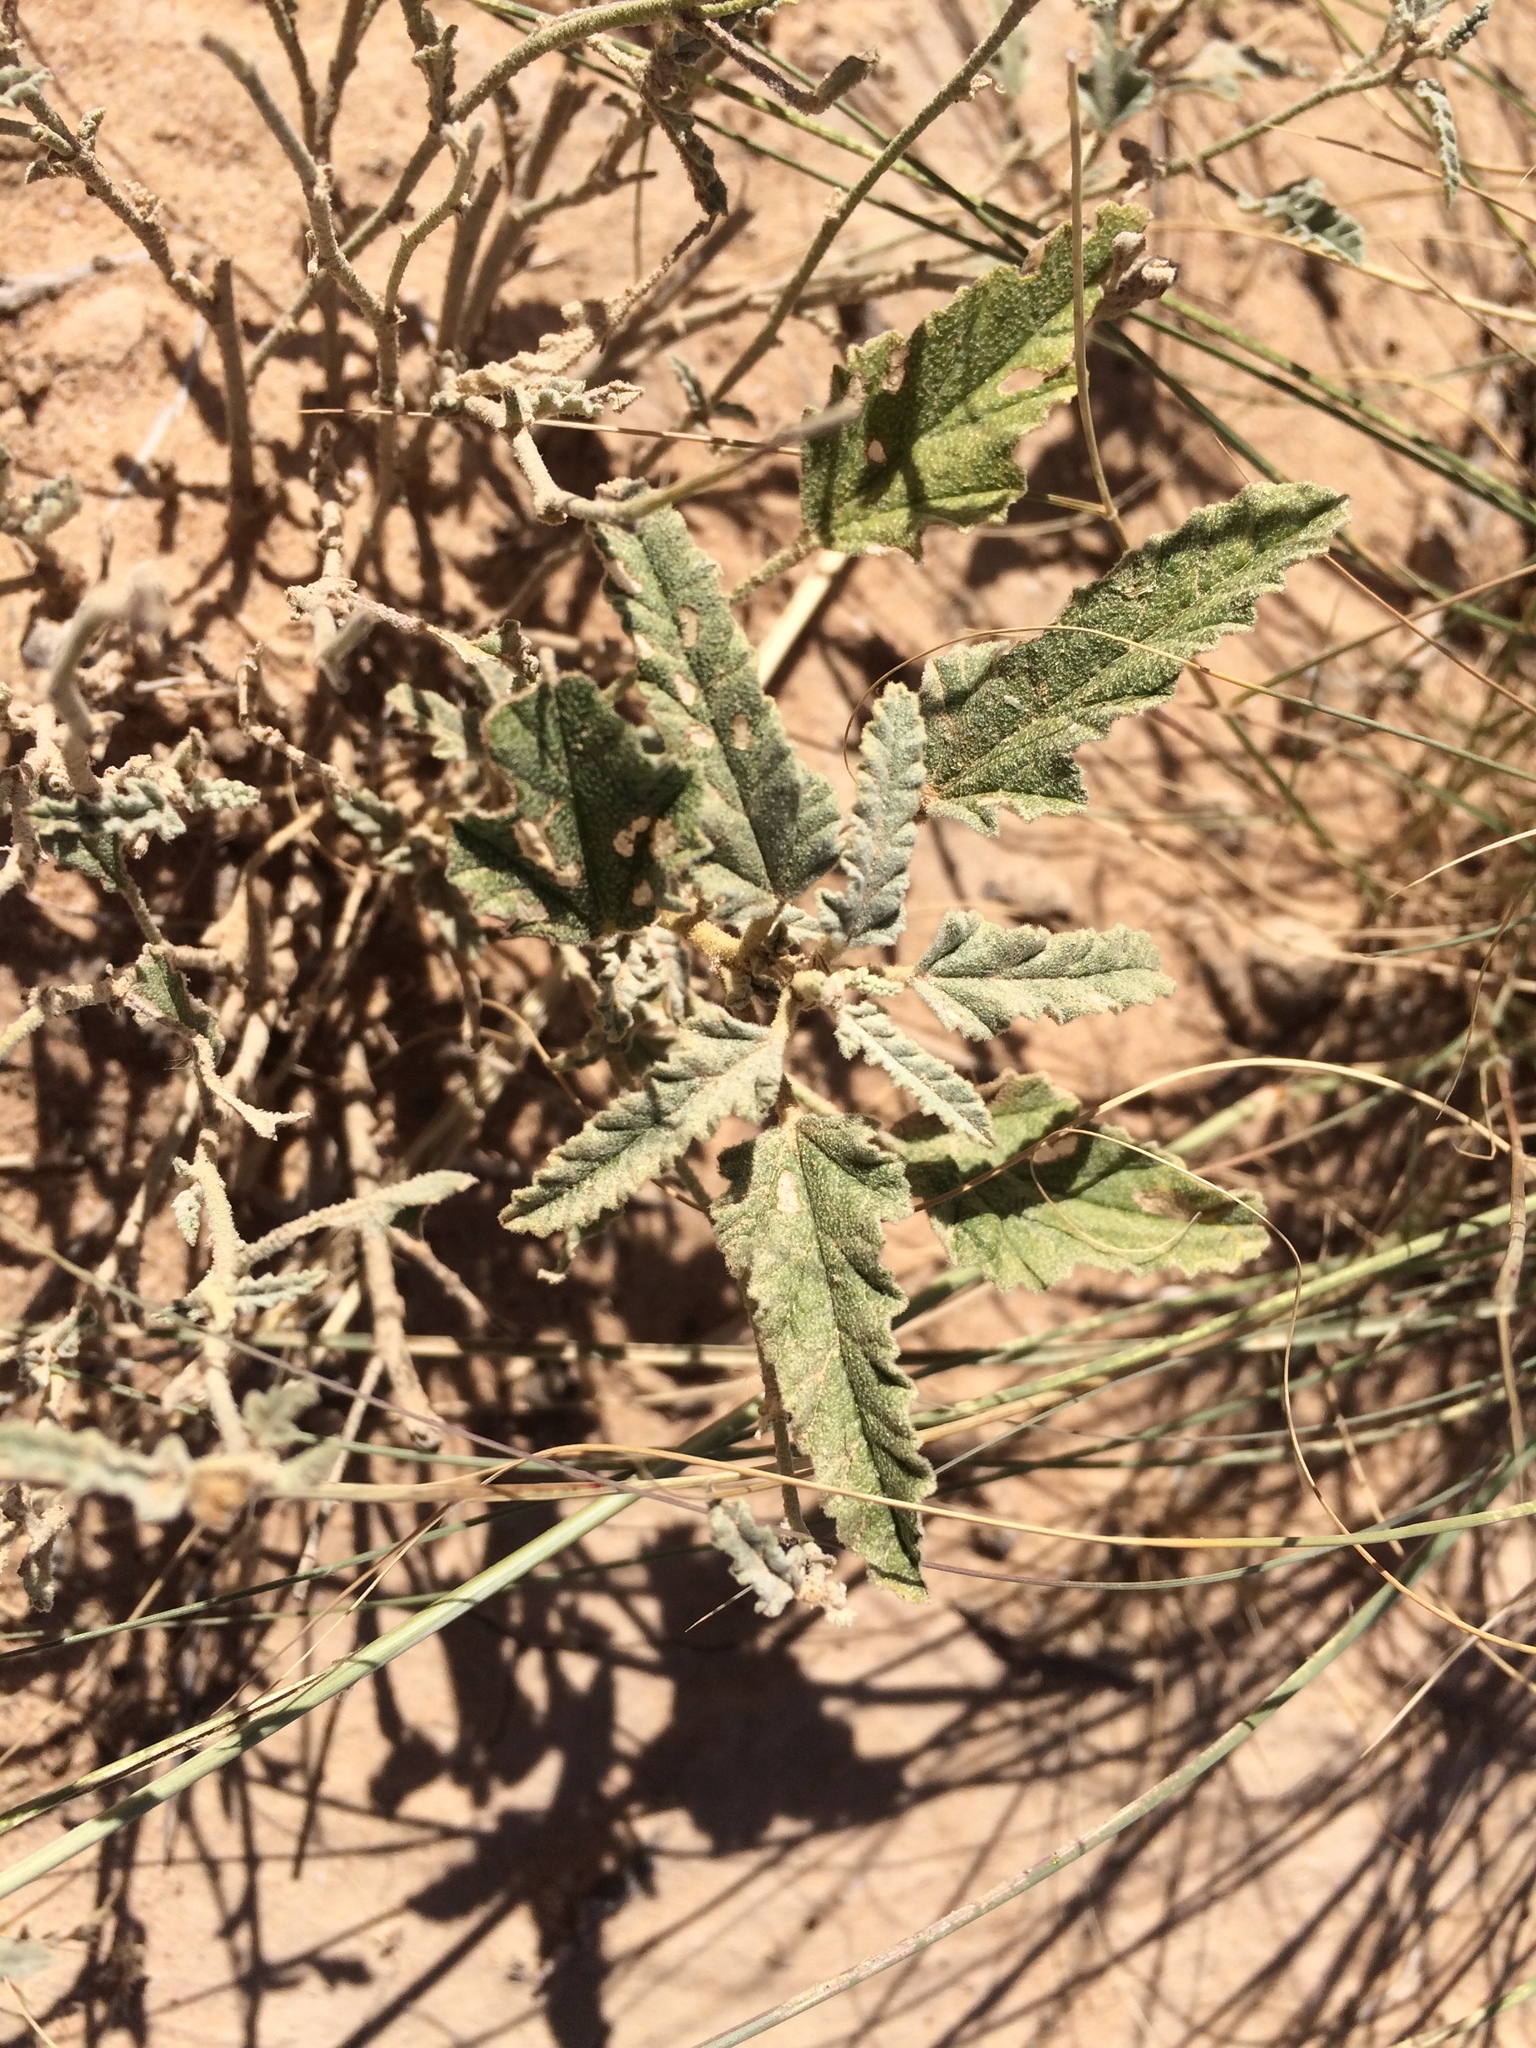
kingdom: Plantae
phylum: Tracheophyta
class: Magnoliopsida
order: Malvales
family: Malvaceae
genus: Sphaeralcea
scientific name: Sphaeralcea hastulata
